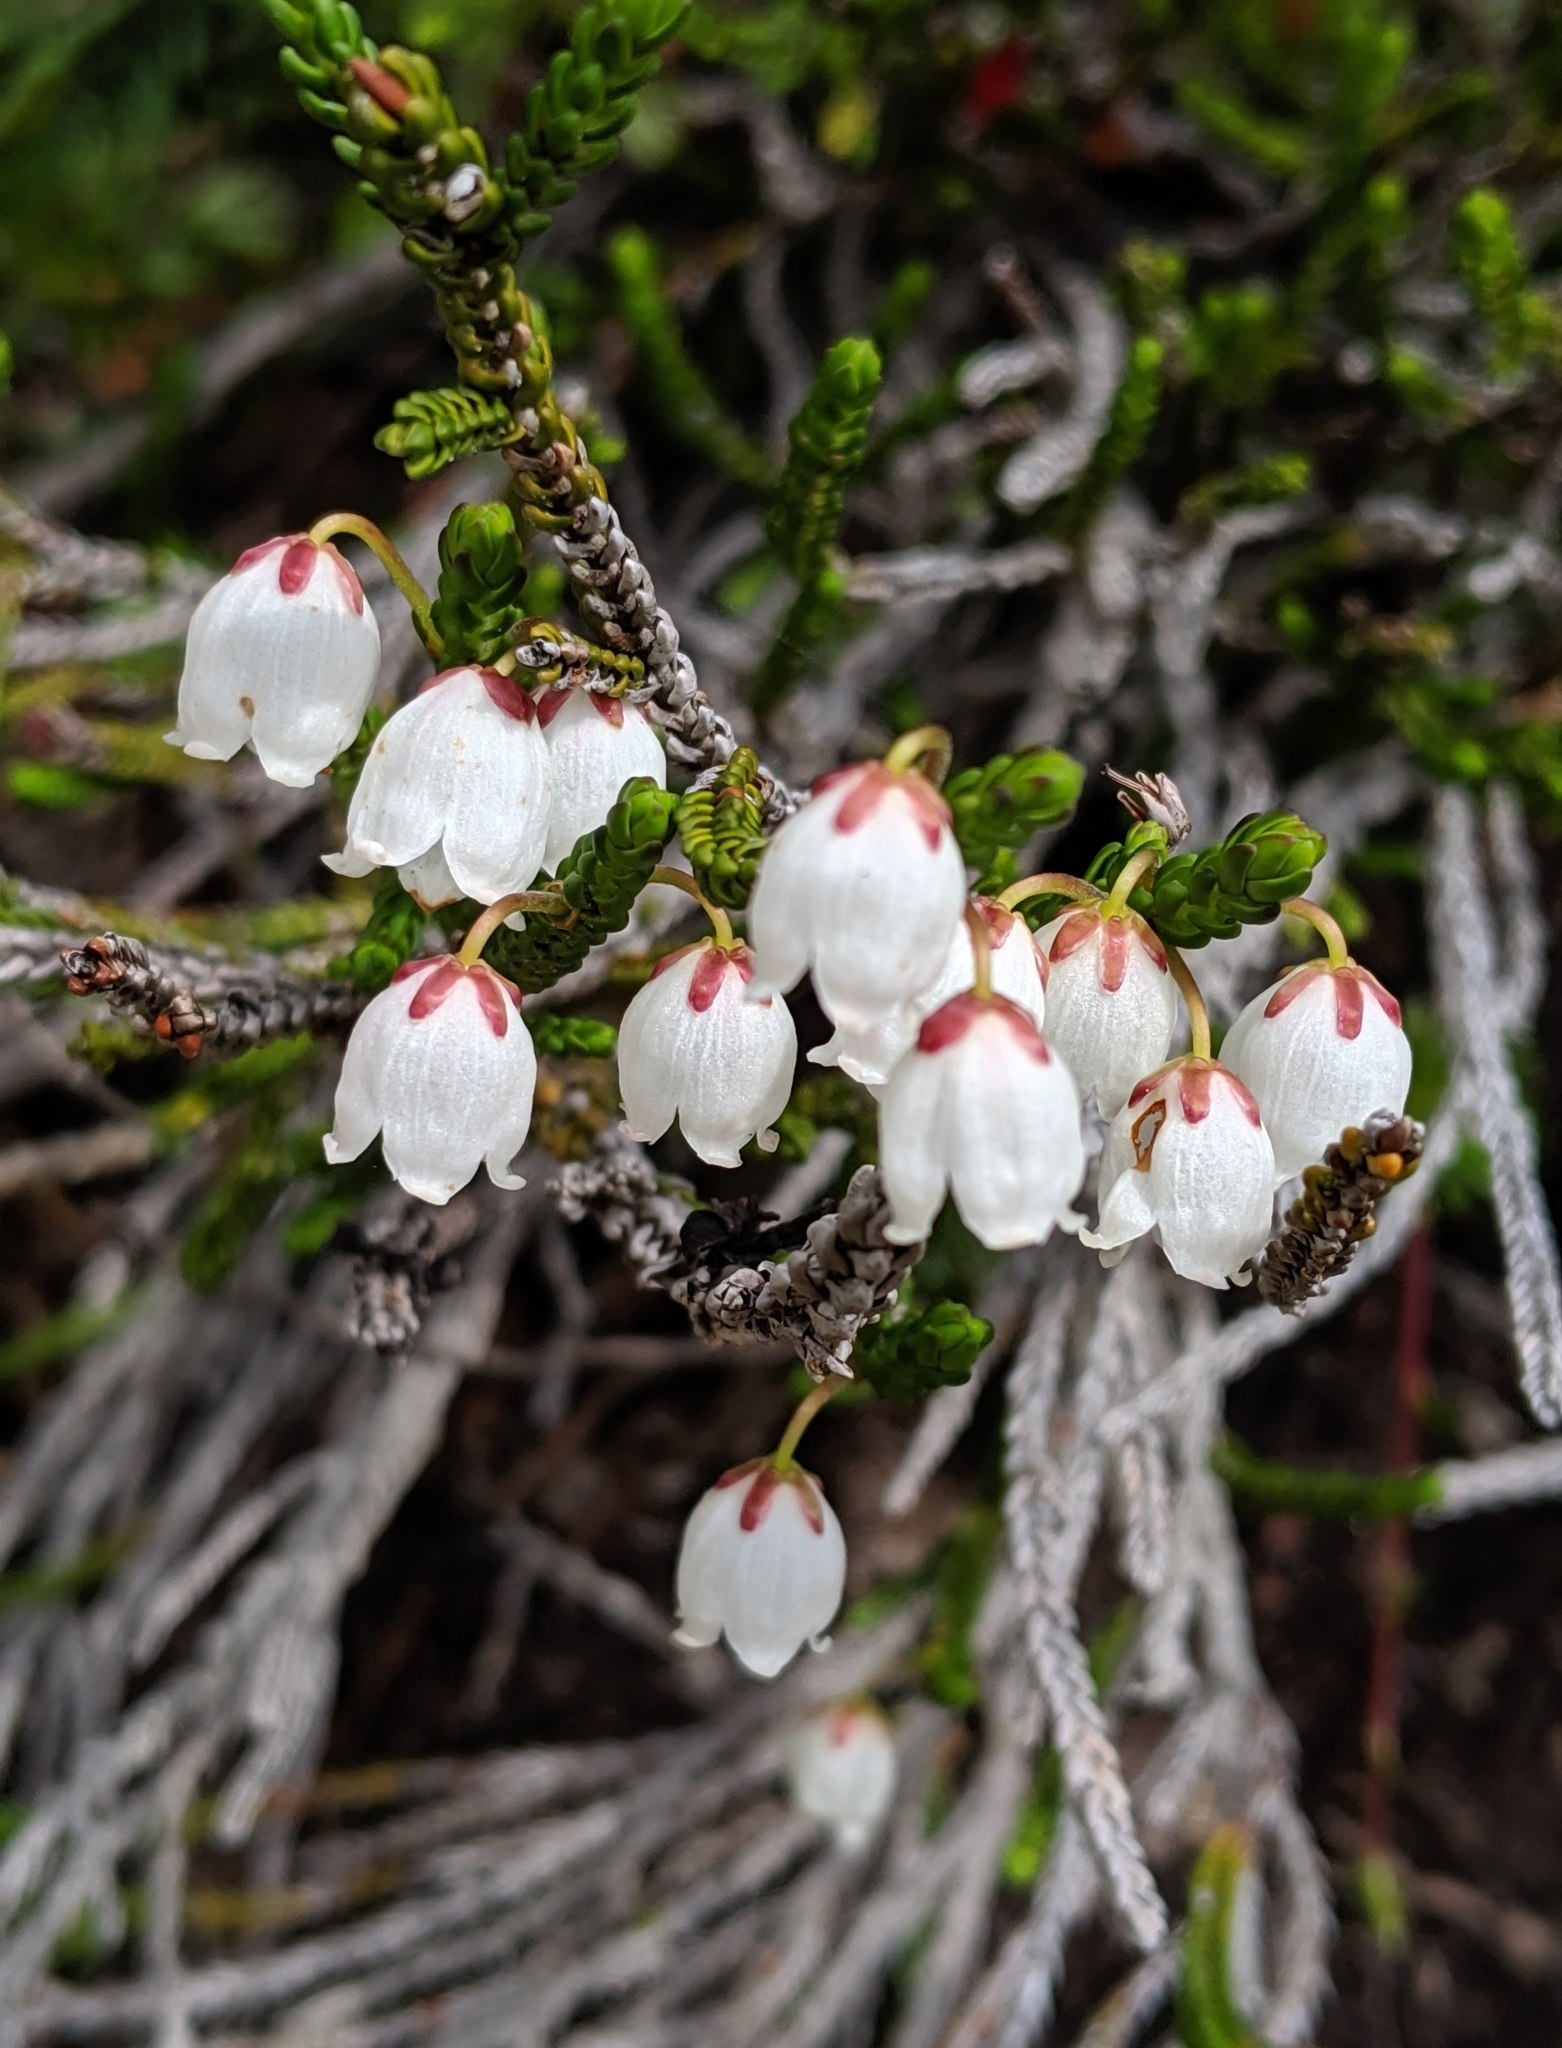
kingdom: Plantae
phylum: Tracheophyta
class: Magnoliopsida
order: Ericales
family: Ericaceae
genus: Cassiope
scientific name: Cassiope mertensiana
